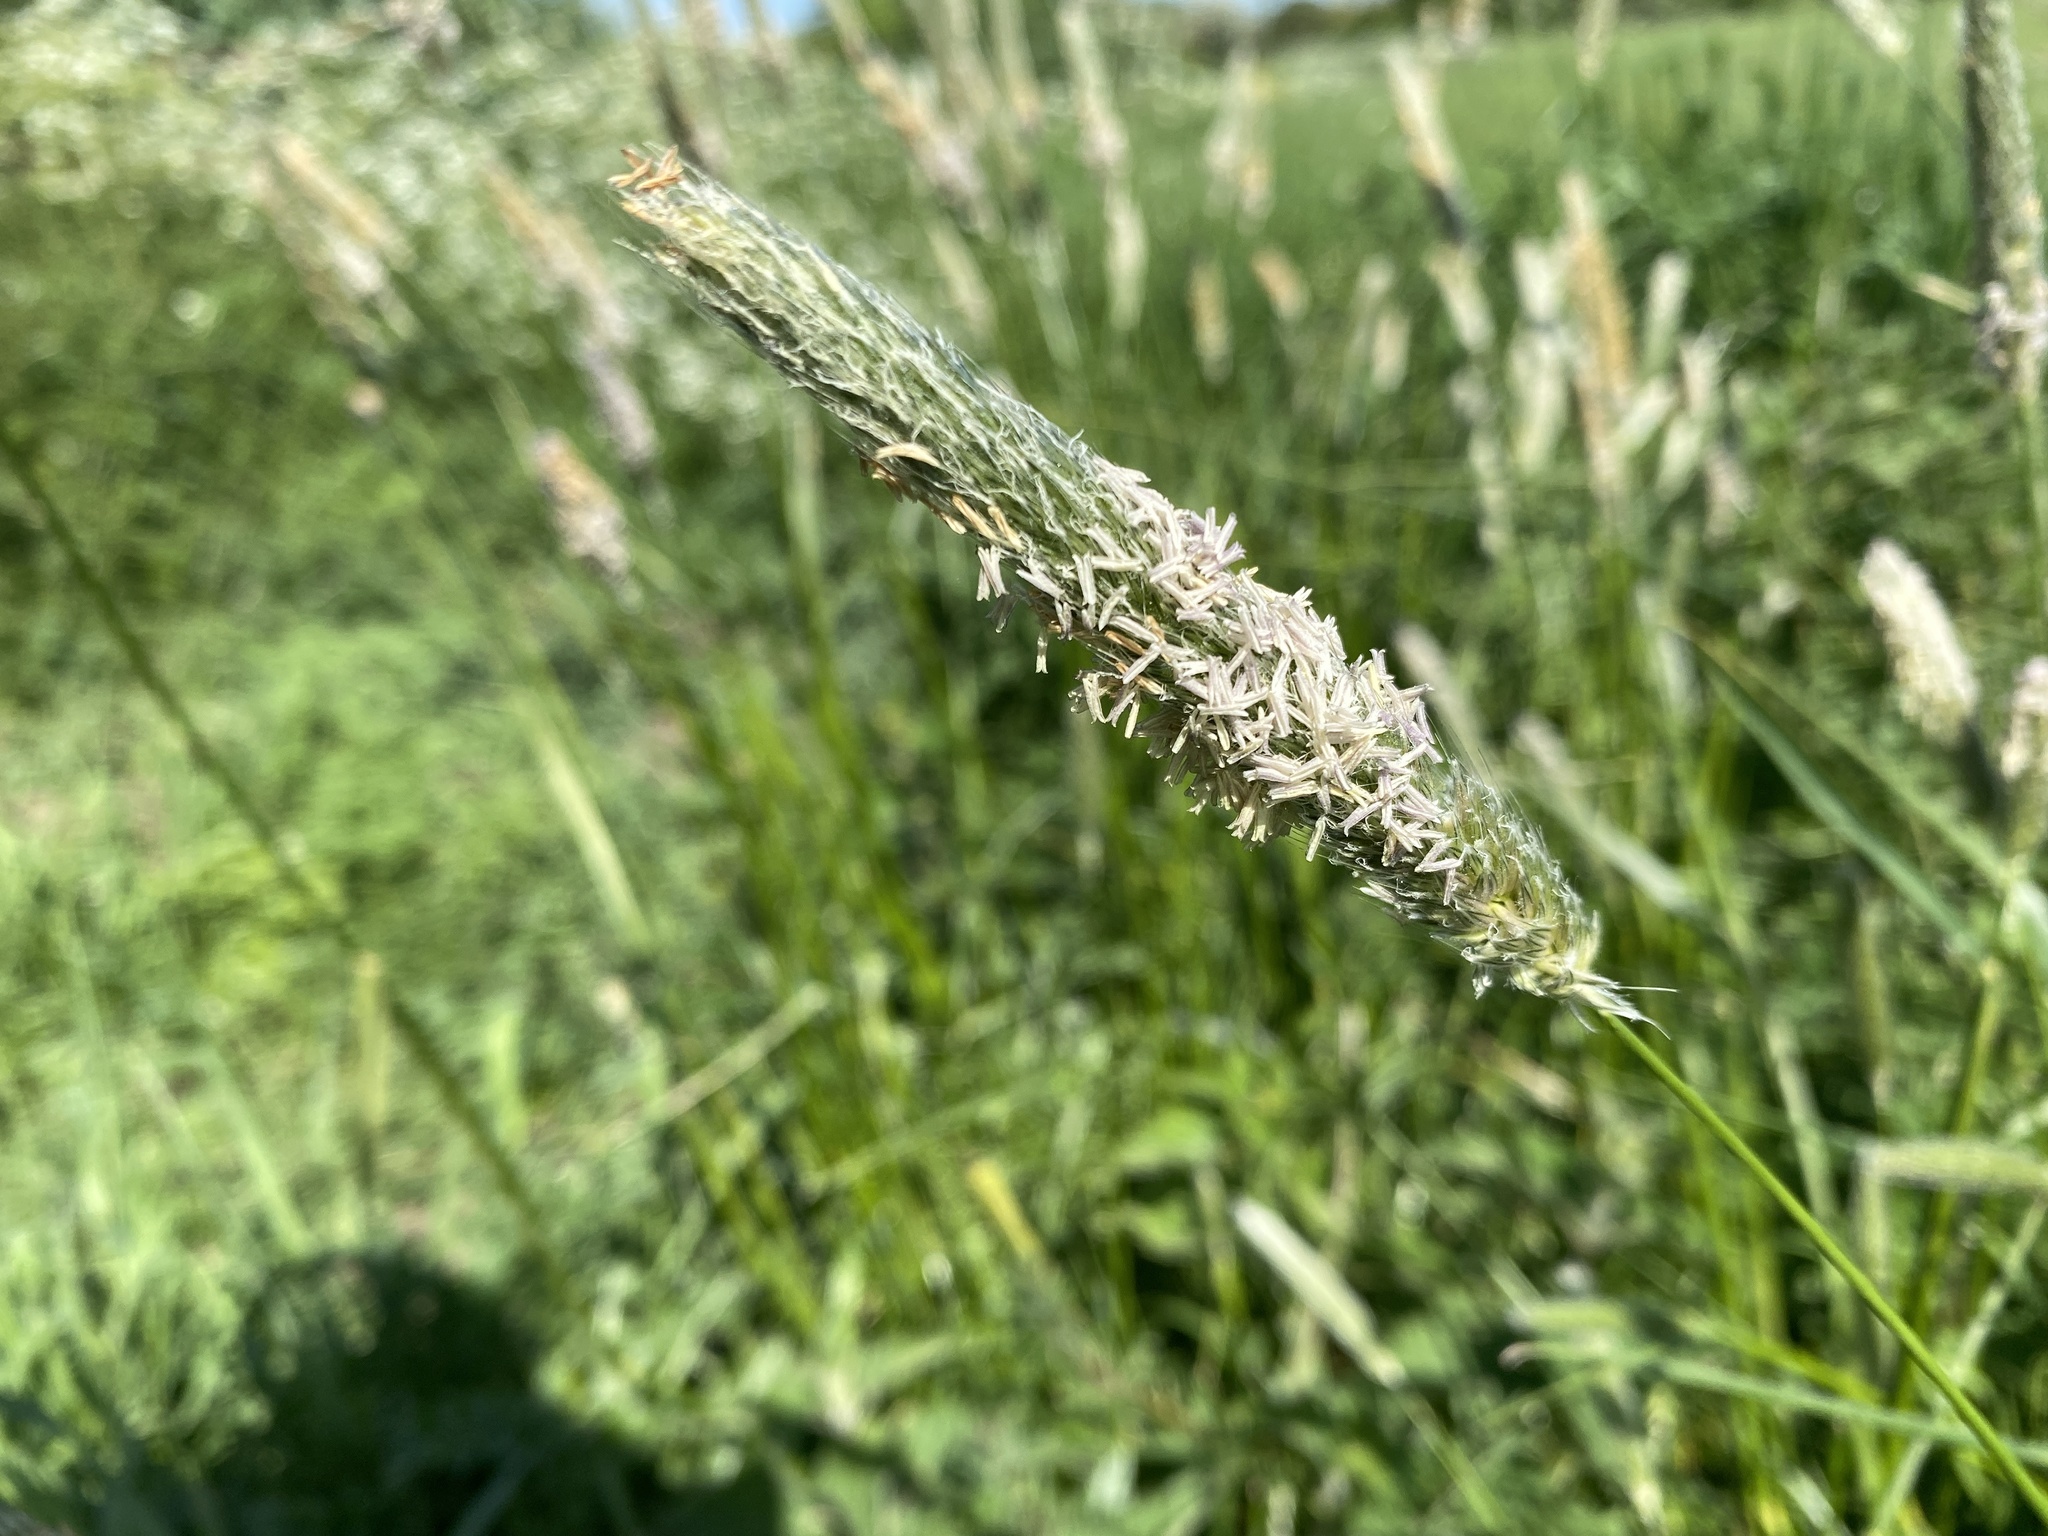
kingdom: Plantae
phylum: Tracheophyta
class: Liliopsida
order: Poales
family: Poaceae
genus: Alopecurus
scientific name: Alopecurus pratensis
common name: Meadow foxtail
